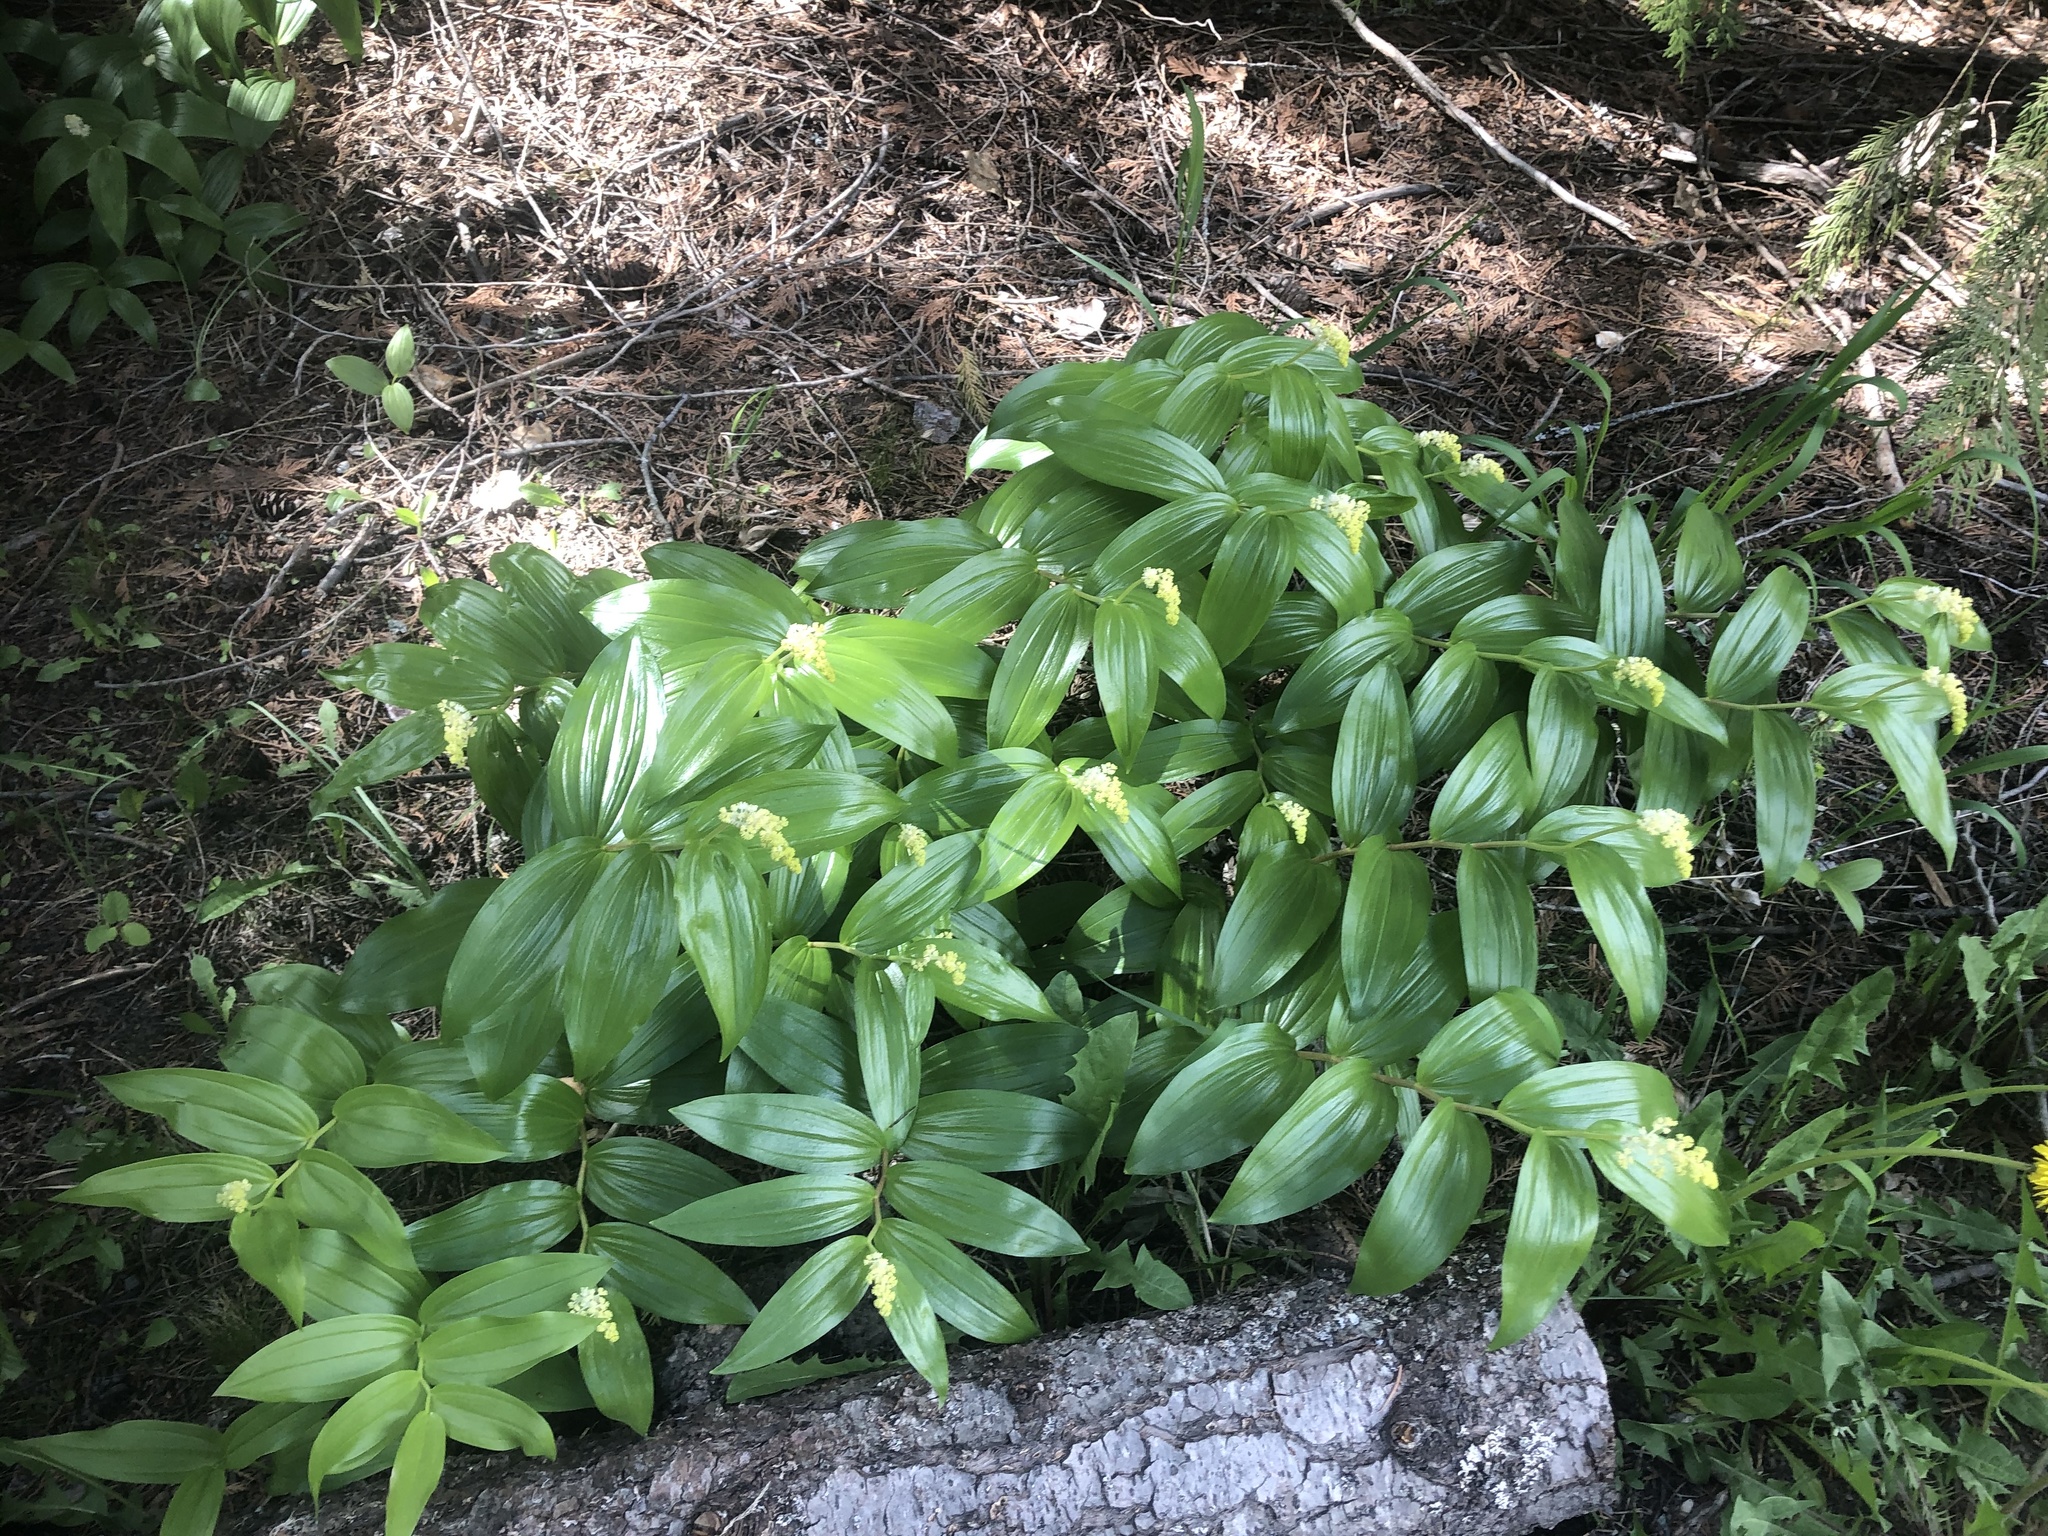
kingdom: Plantae
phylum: Tracheophyta
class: Liliopsida
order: Asparagales
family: Asparagaceae
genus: Maianthemum
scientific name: Maianthemum racemosum
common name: False spikenard
